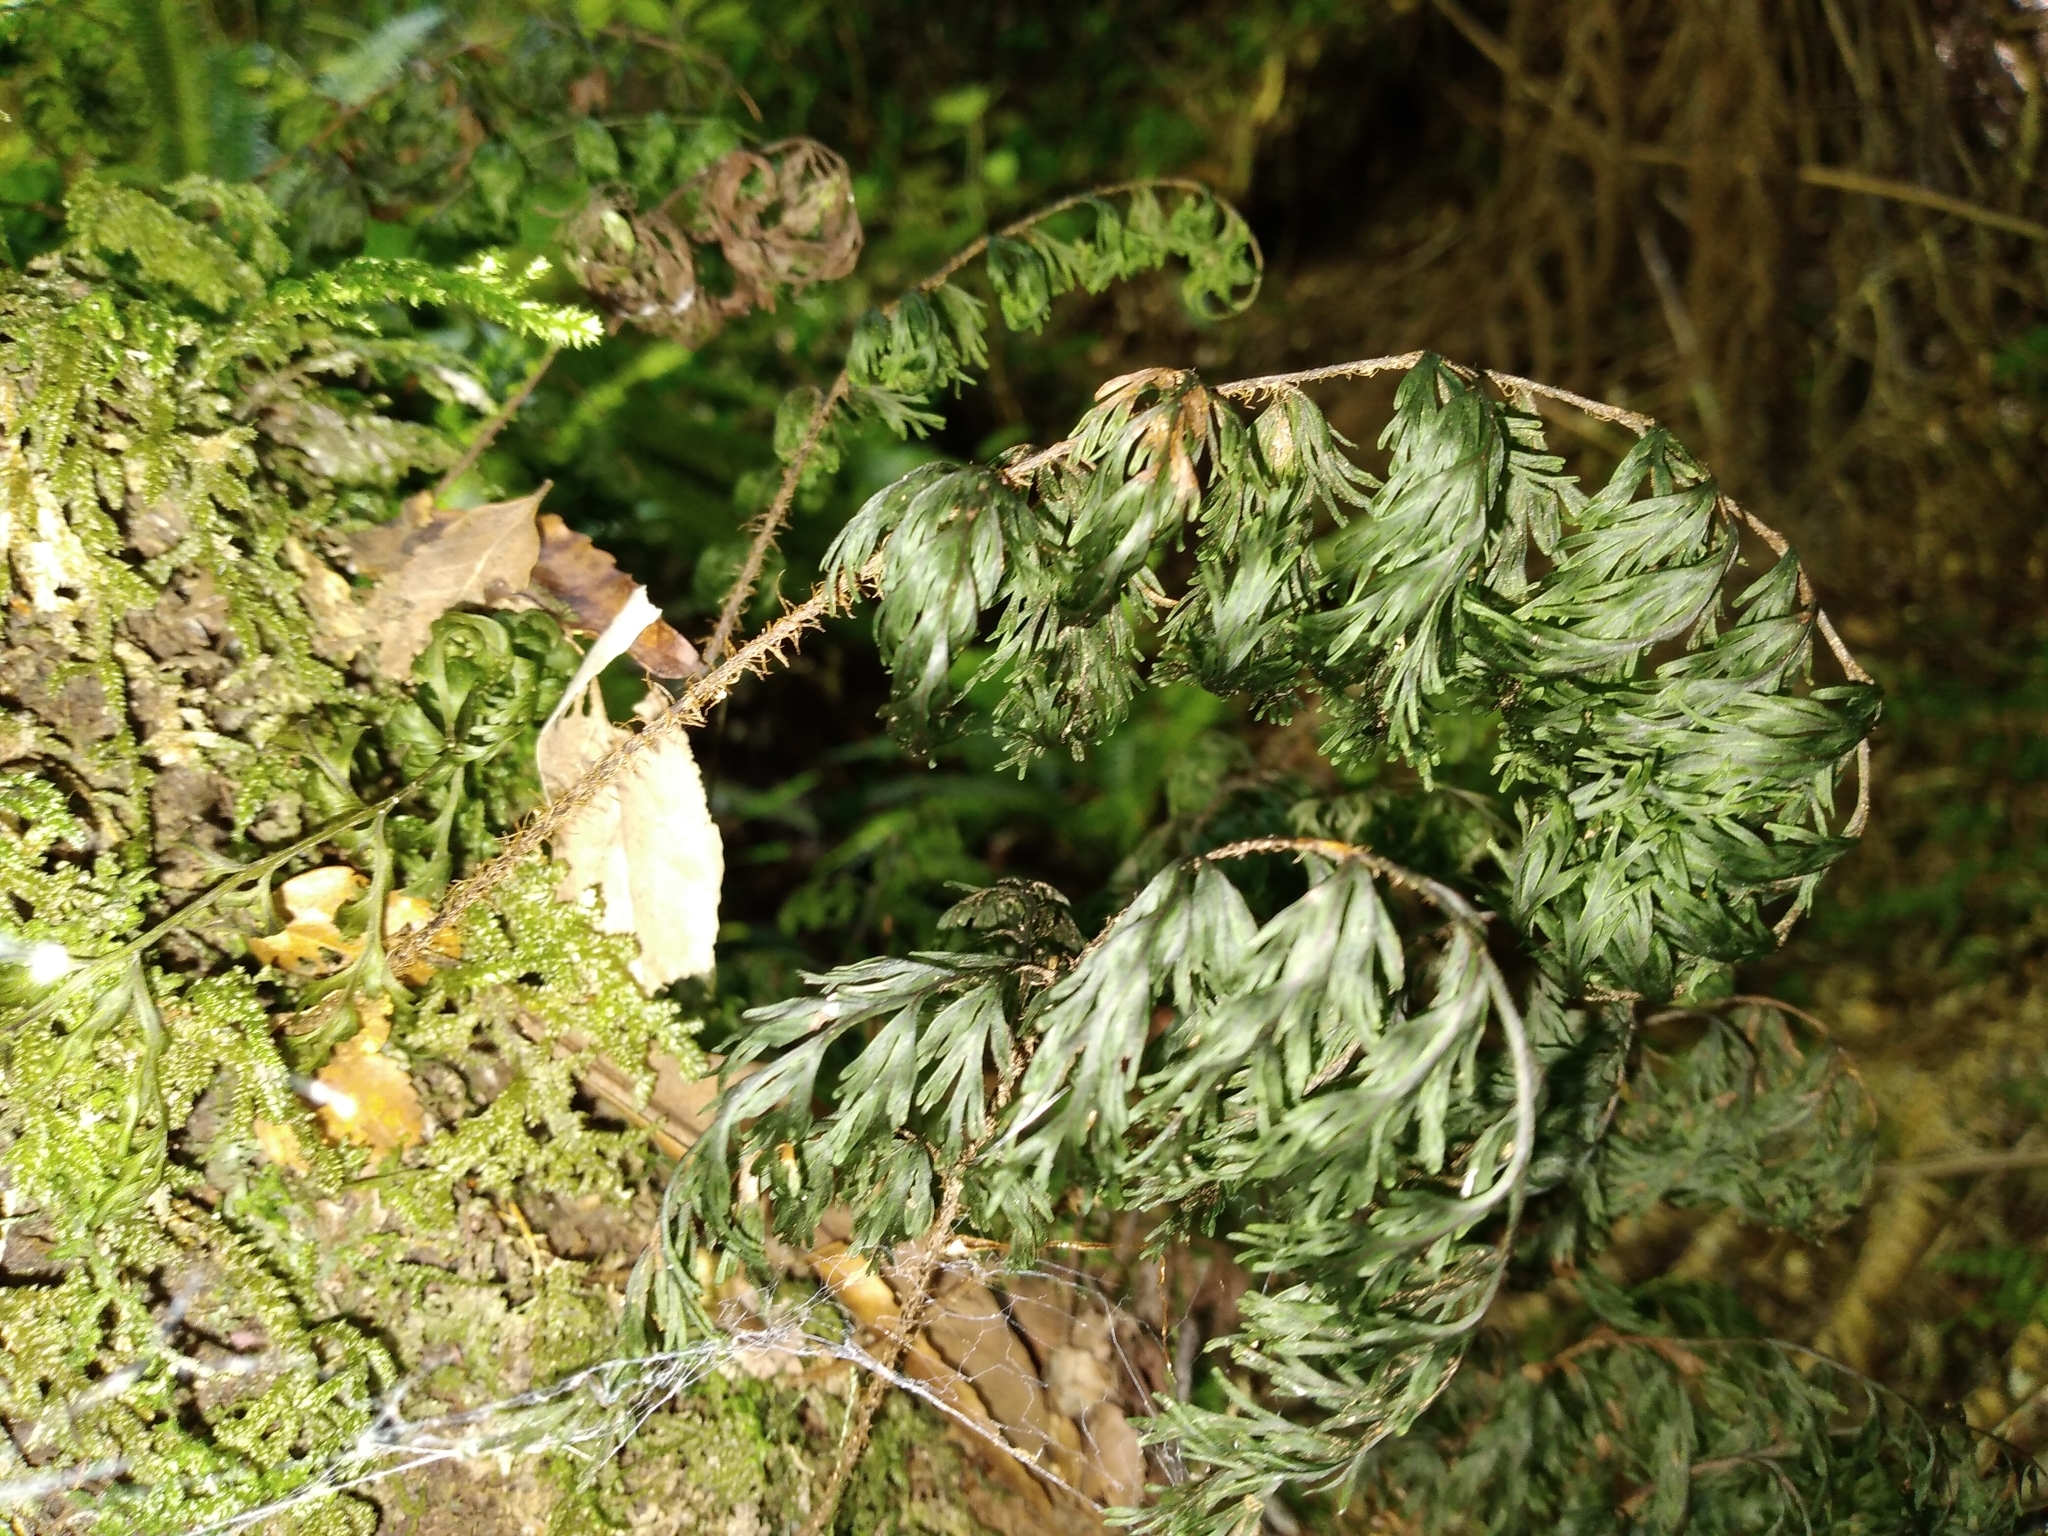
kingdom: Plantae
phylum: Tracheophyta
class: Polypodiopsida
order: Hymenophyllales
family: Hymenophyllaceae
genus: Hymenophyllum
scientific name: Hymenophyllum scabrum
